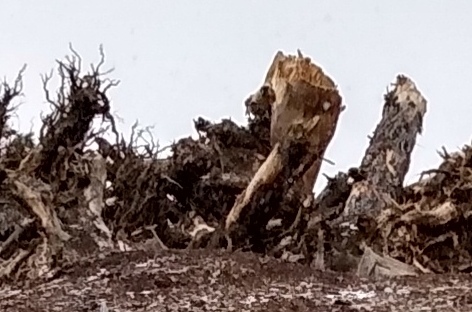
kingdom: Animalia
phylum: Chordata
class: Mammalia
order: Rodentia
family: Sciuridae
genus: Marmota
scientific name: Marmota flaviventris
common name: Yellow-bellied marmot
